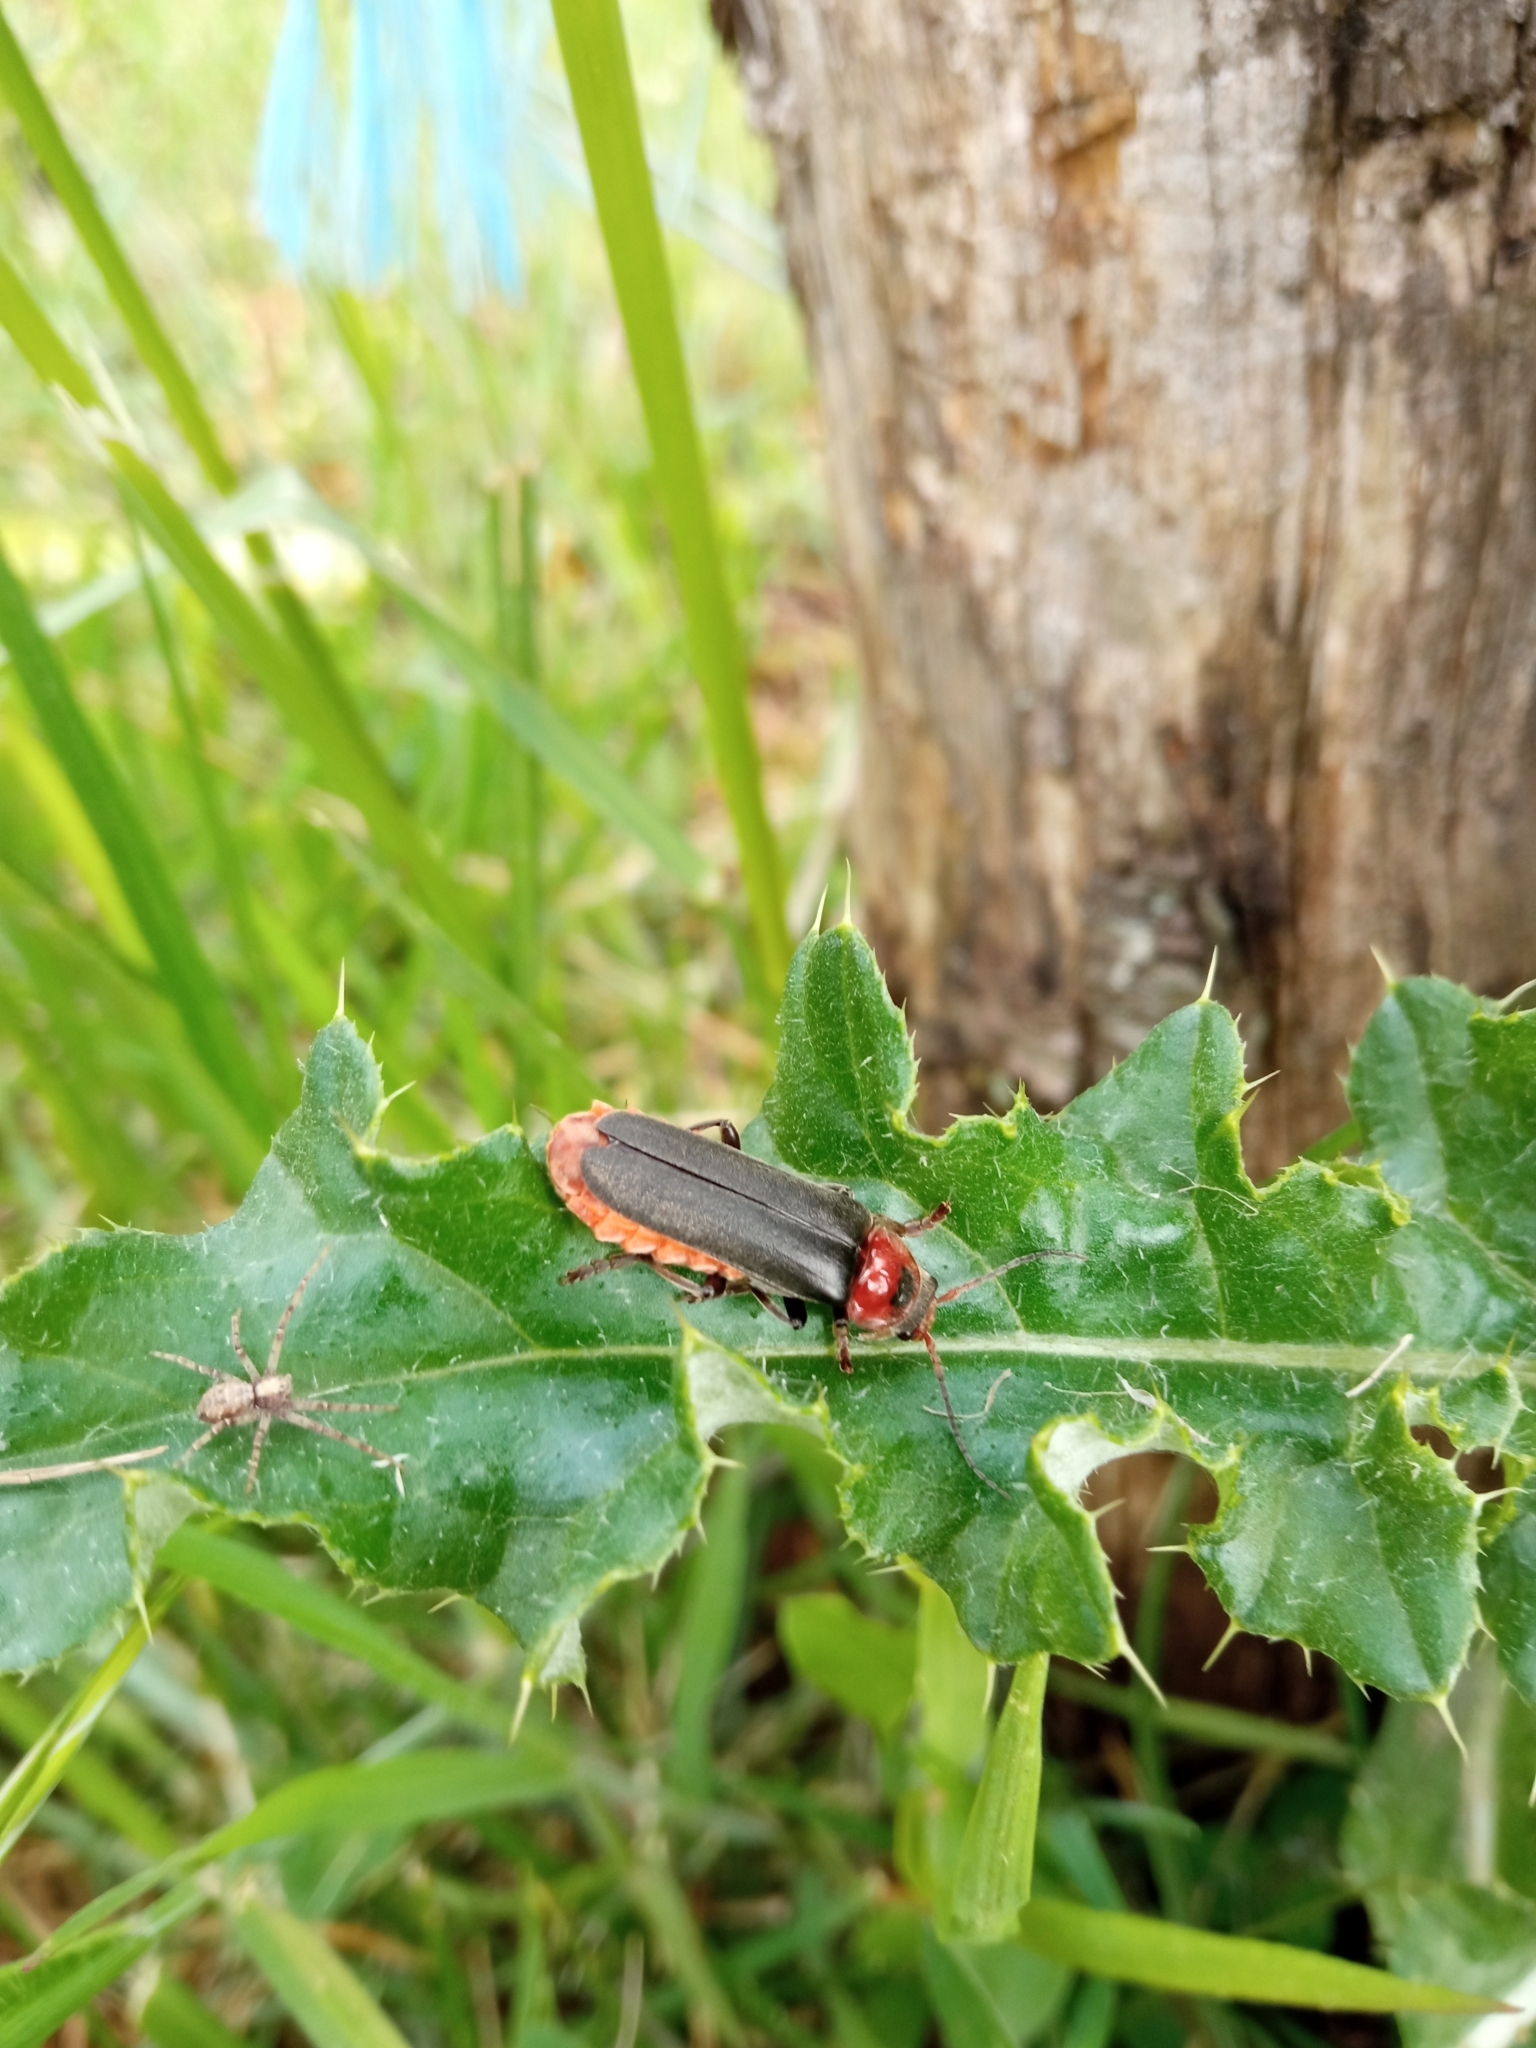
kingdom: Animalia
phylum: Arthropoda
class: Insecta
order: Coleoptera
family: Cantharidae
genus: Cantharis
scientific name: Cantharis fusca
